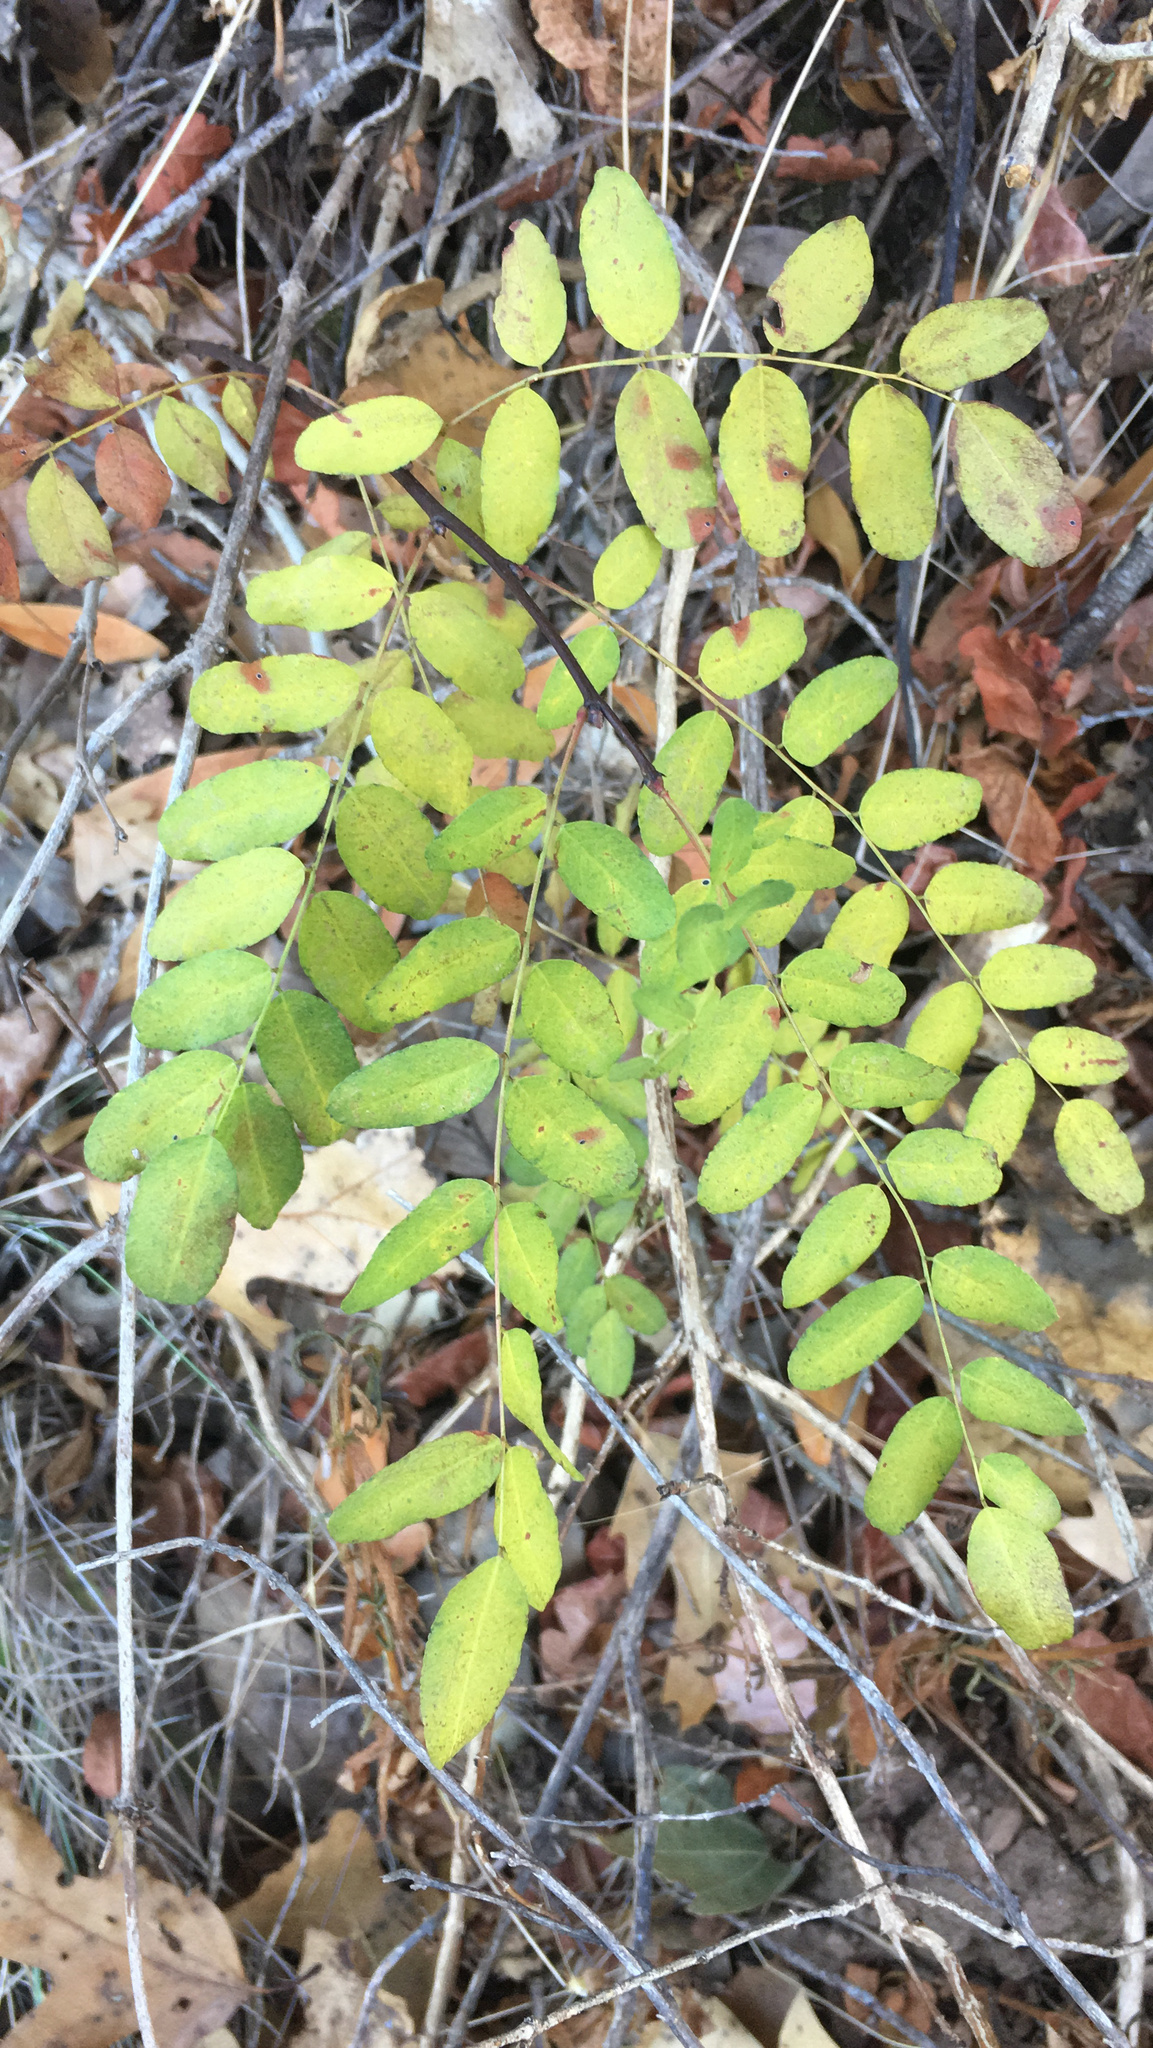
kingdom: Plantae
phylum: Tracheophyta
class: Magnoliopsida
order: Fabales
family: Fabaceae
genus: Amorpha
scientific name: Amorpha californica
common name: California indigobush
